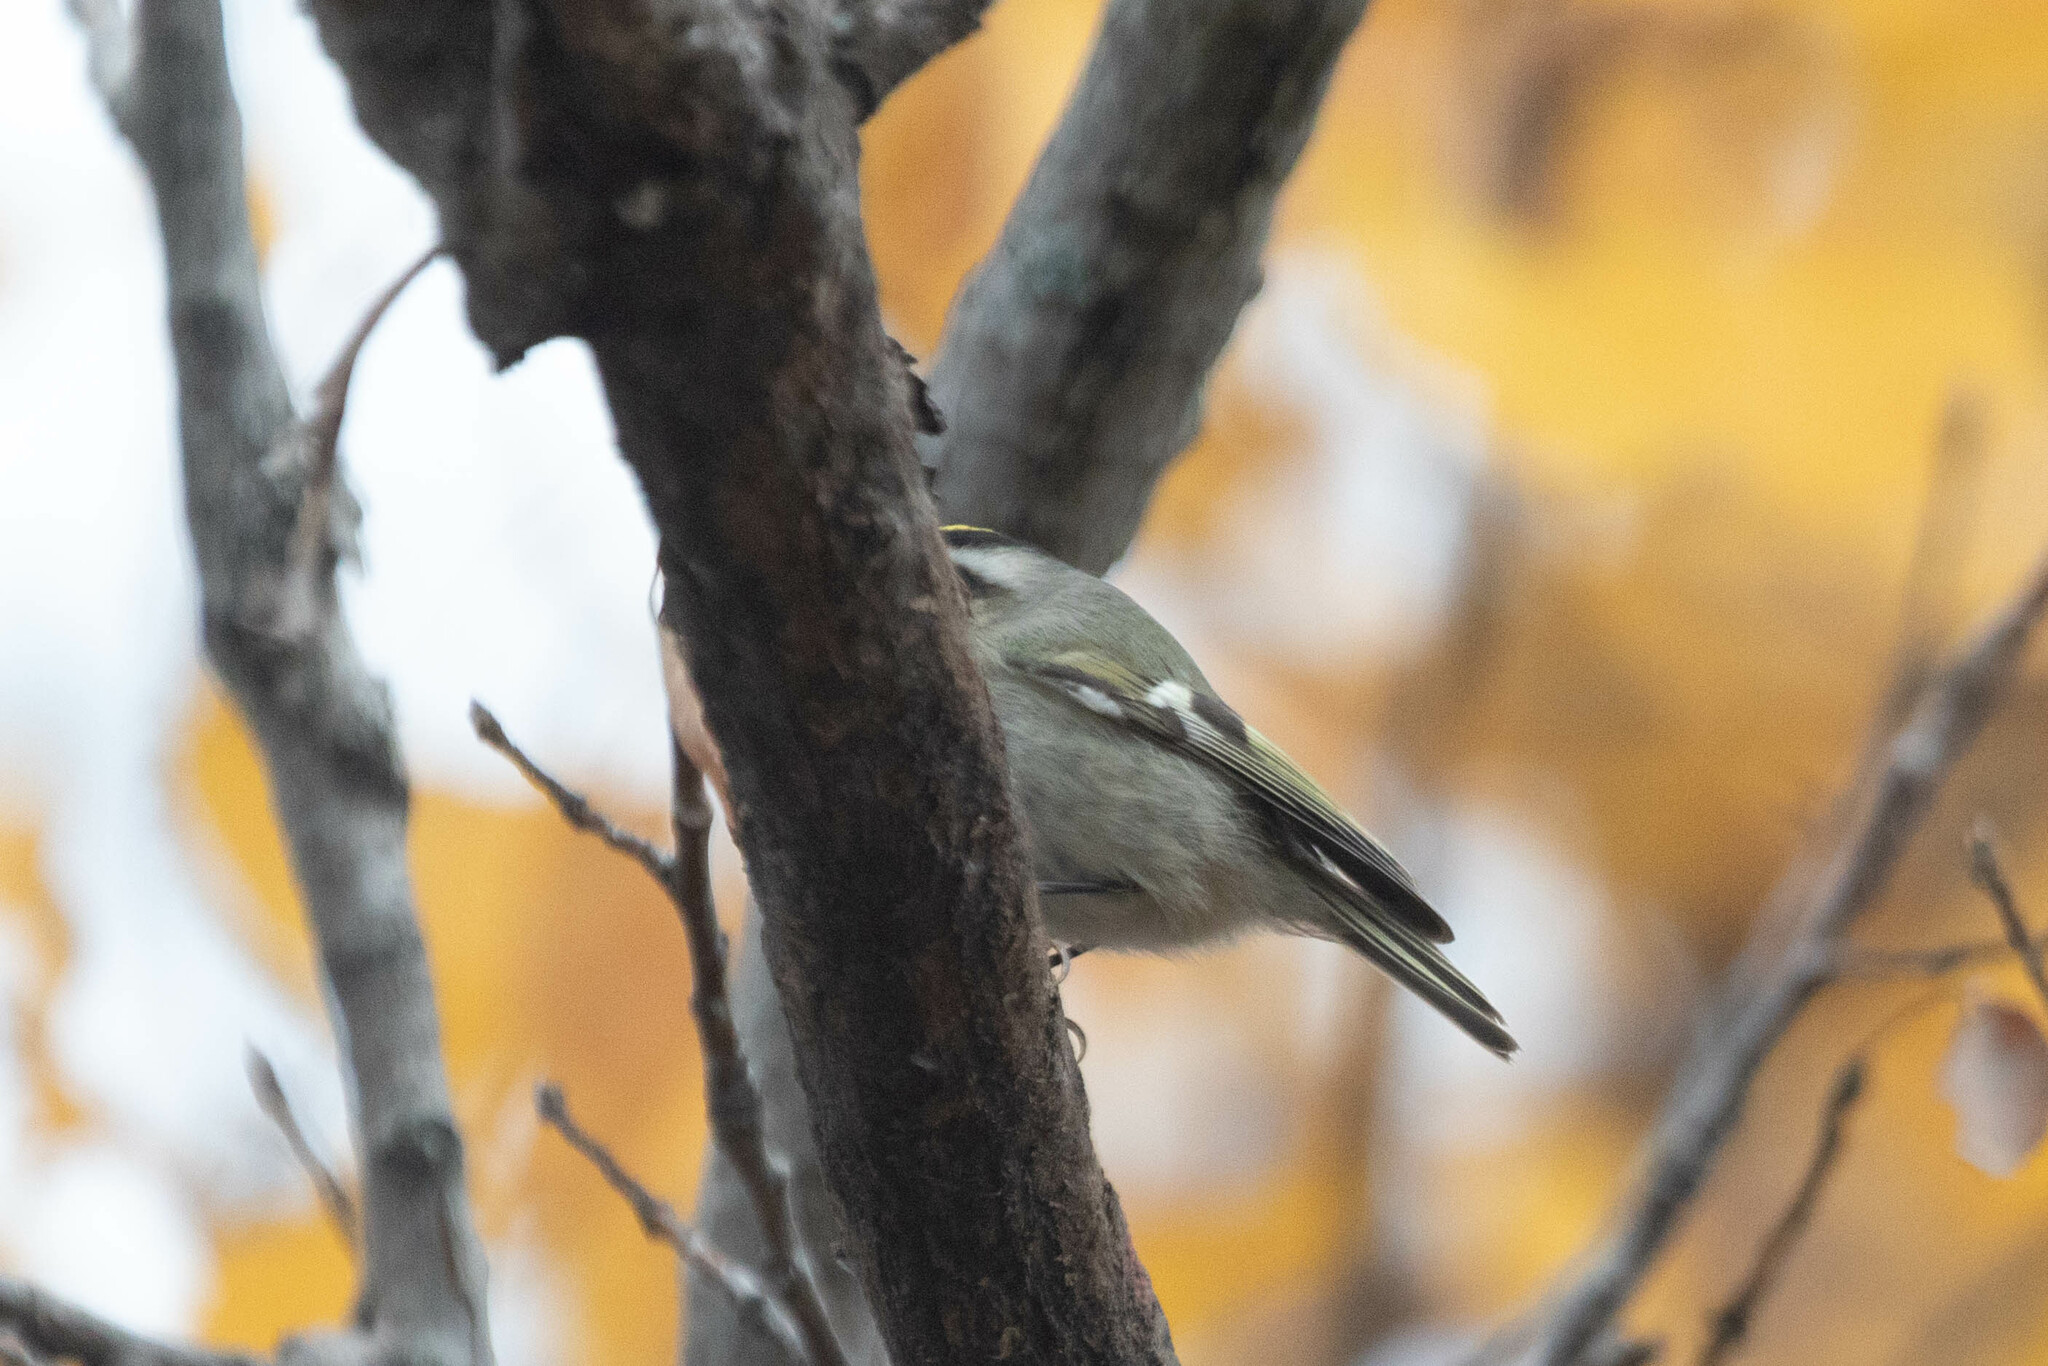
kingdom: Animalia
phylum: Chordata
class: Aves
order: Passeriformes
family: Regulidae
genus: Regulus
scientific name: Regulus satrapa
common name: Golden-crowned kinglet
